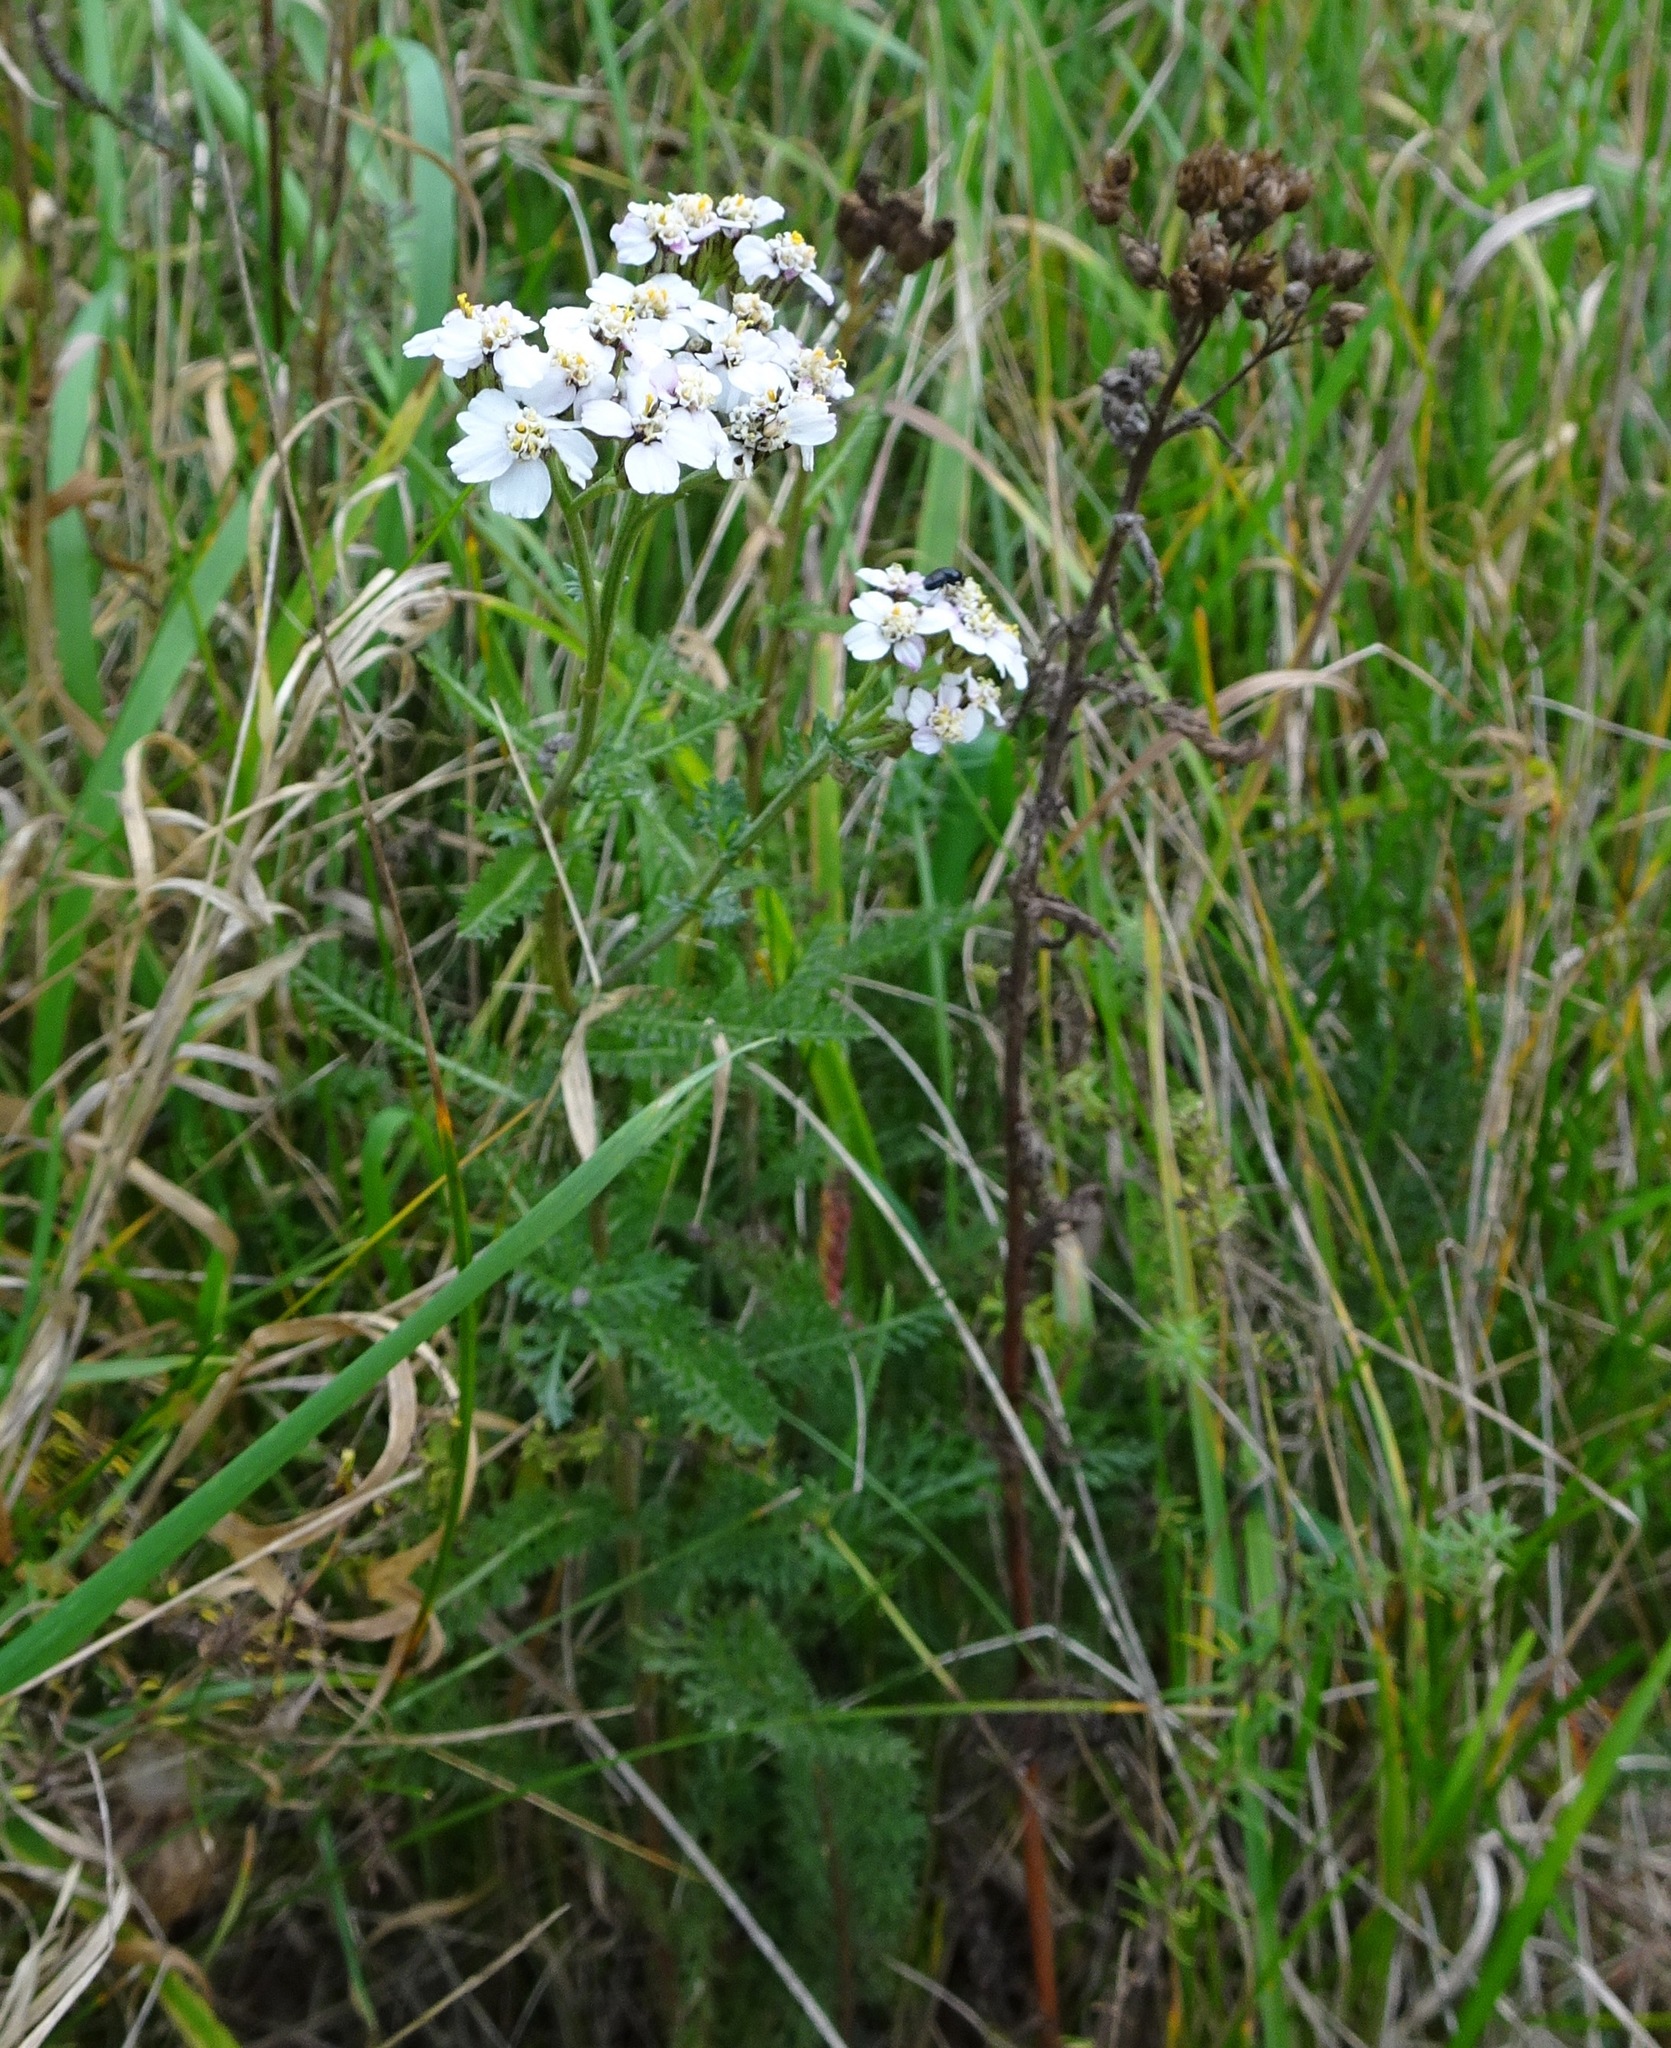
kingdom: Plantae
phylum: Tracheophyta
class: Magnoliopsida
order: Asterales
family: Asteraceae
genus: Achillea
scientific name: Achillea millefolium
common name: Yarrow
